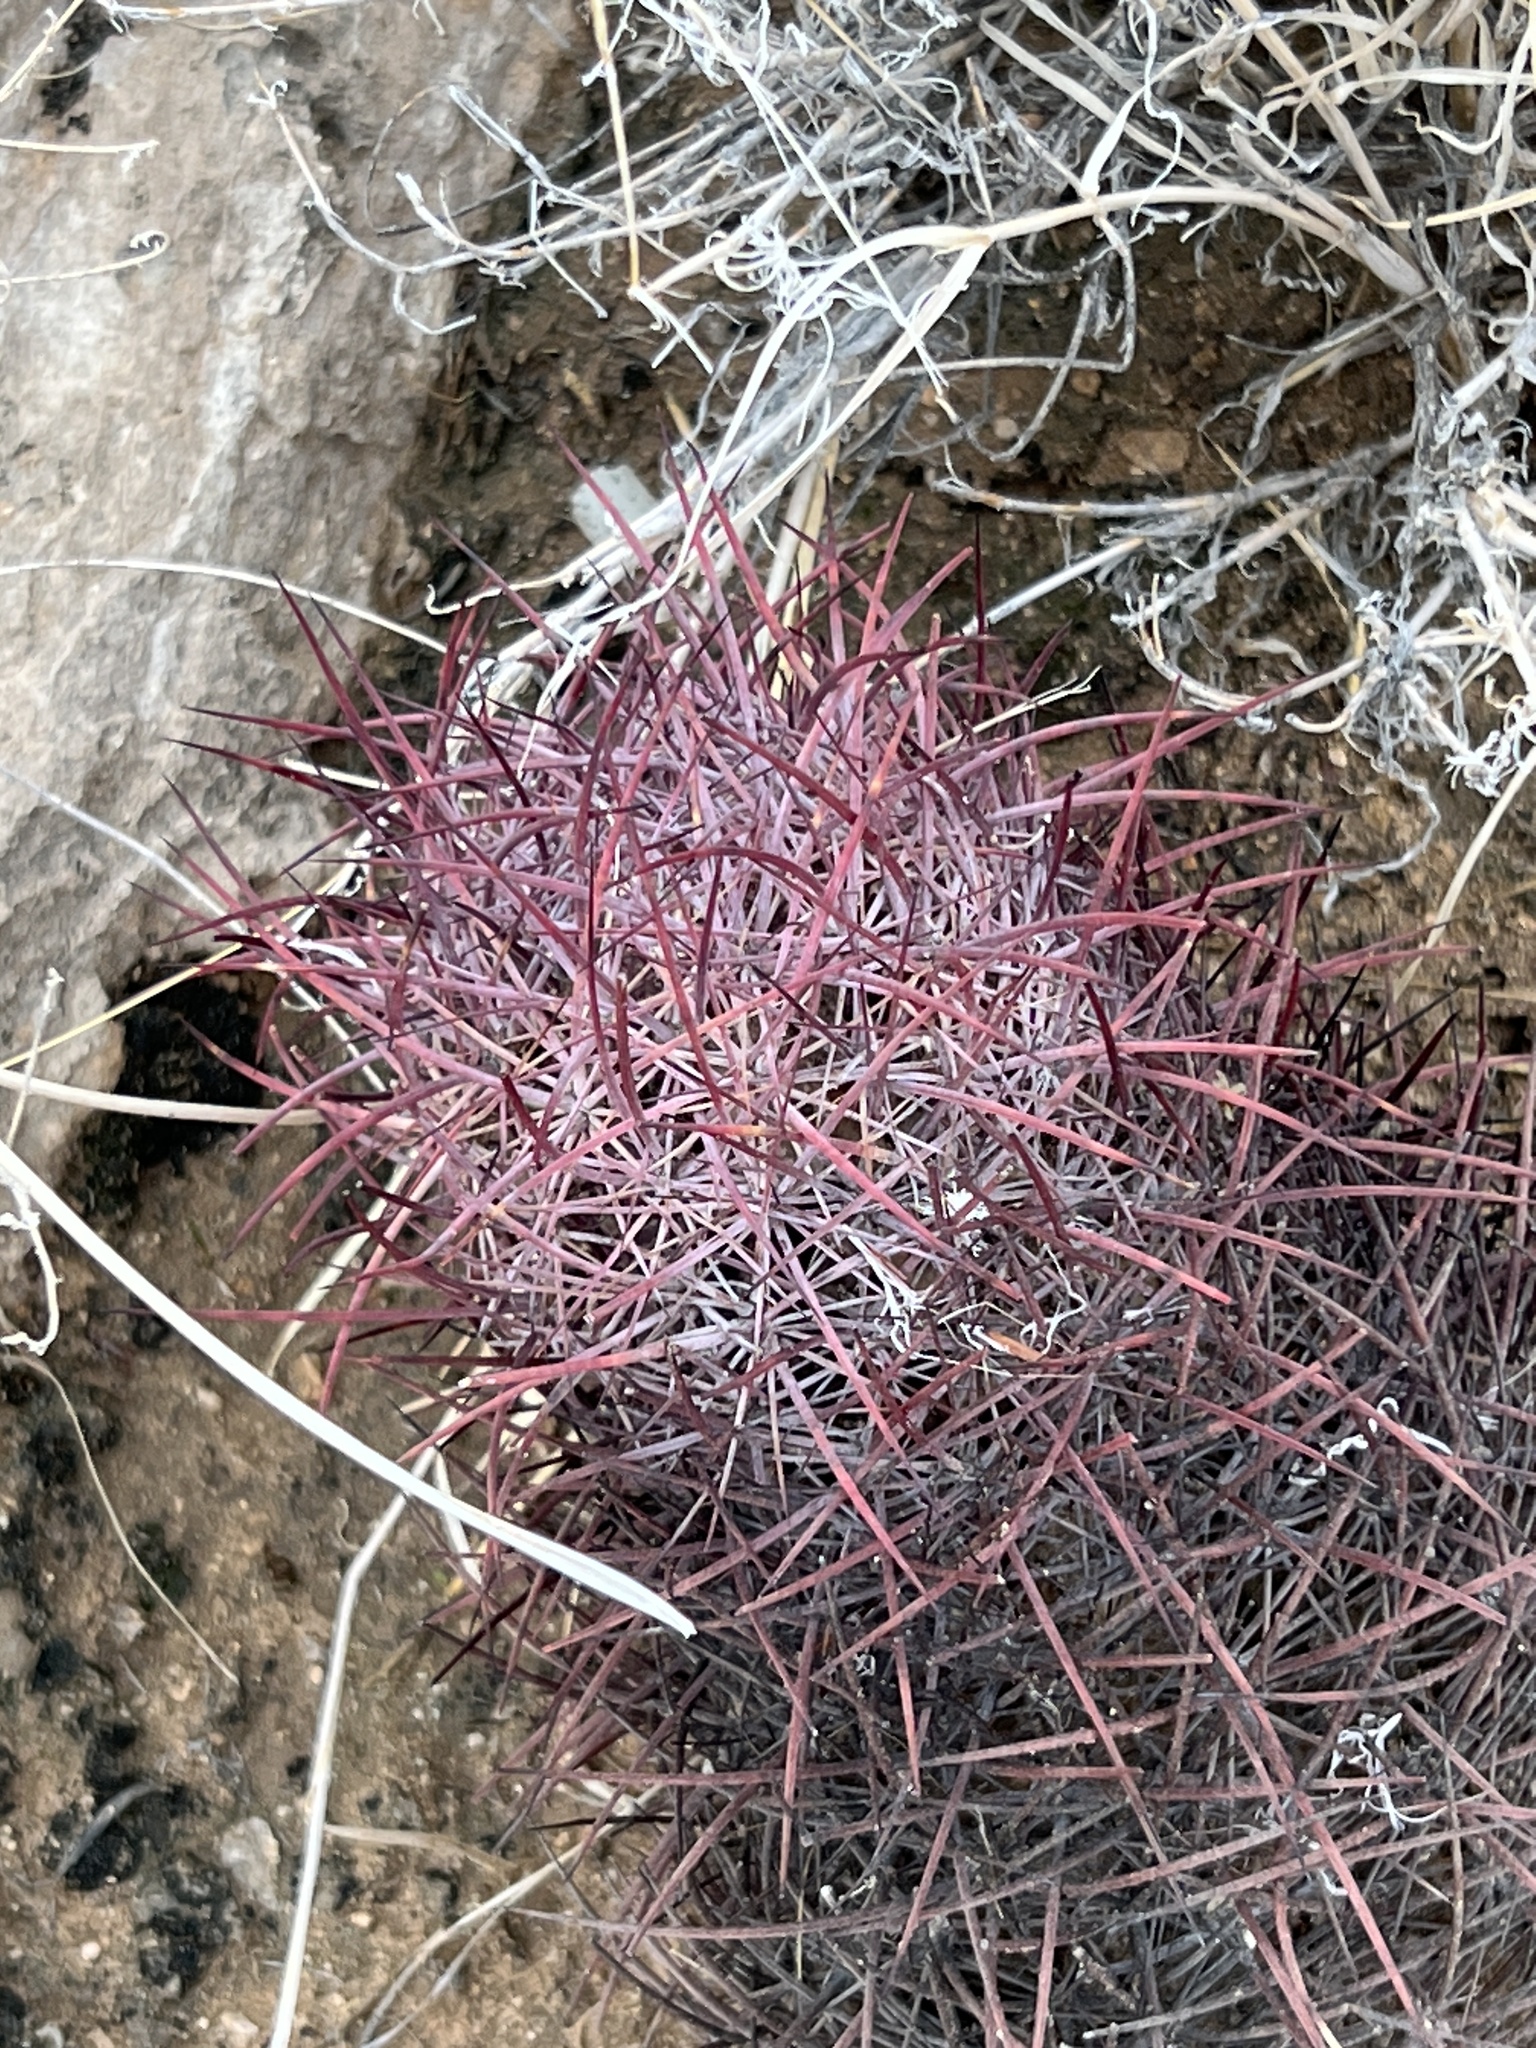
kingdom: Plantae
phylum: Tracheophyta
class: Magnoliopsida
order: Caryophyllales
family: Cactaceae
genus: Sclerocactus
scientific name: Sclerocactus johnsonii
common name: Eight-spine fishhook cactus
